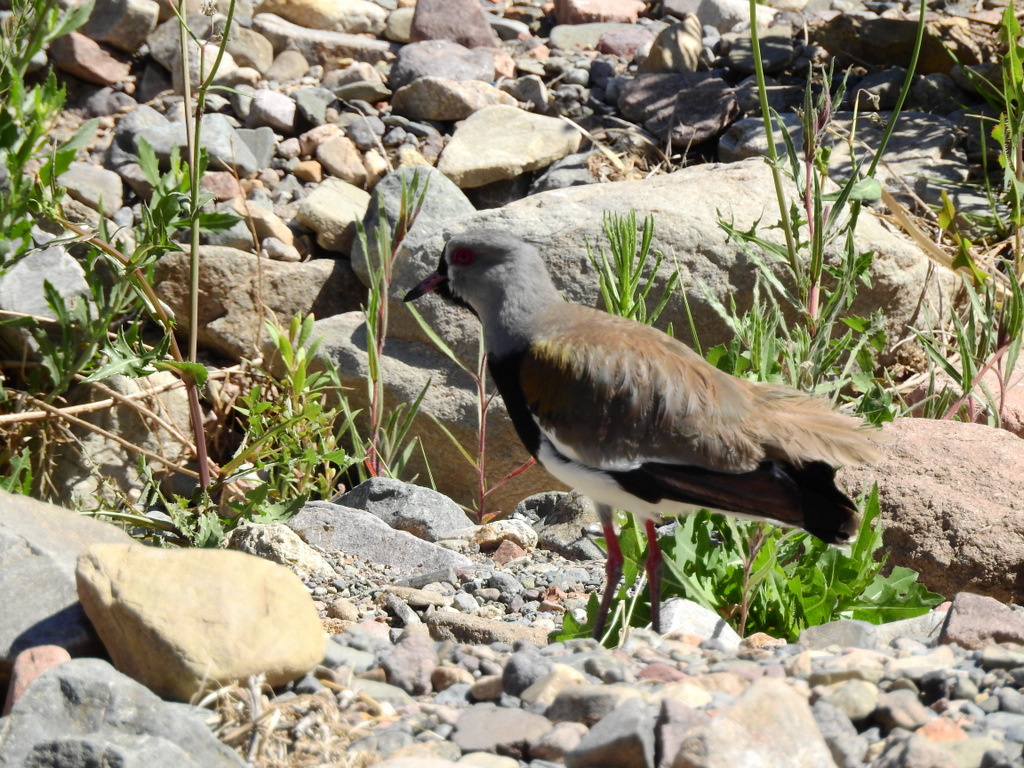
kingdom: Animalia
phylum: Chordata
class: Aves
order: Charadriiformes
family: Charadriidae
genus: Vanellus
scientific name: Vanellus chilensis
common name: Southern lapwing
